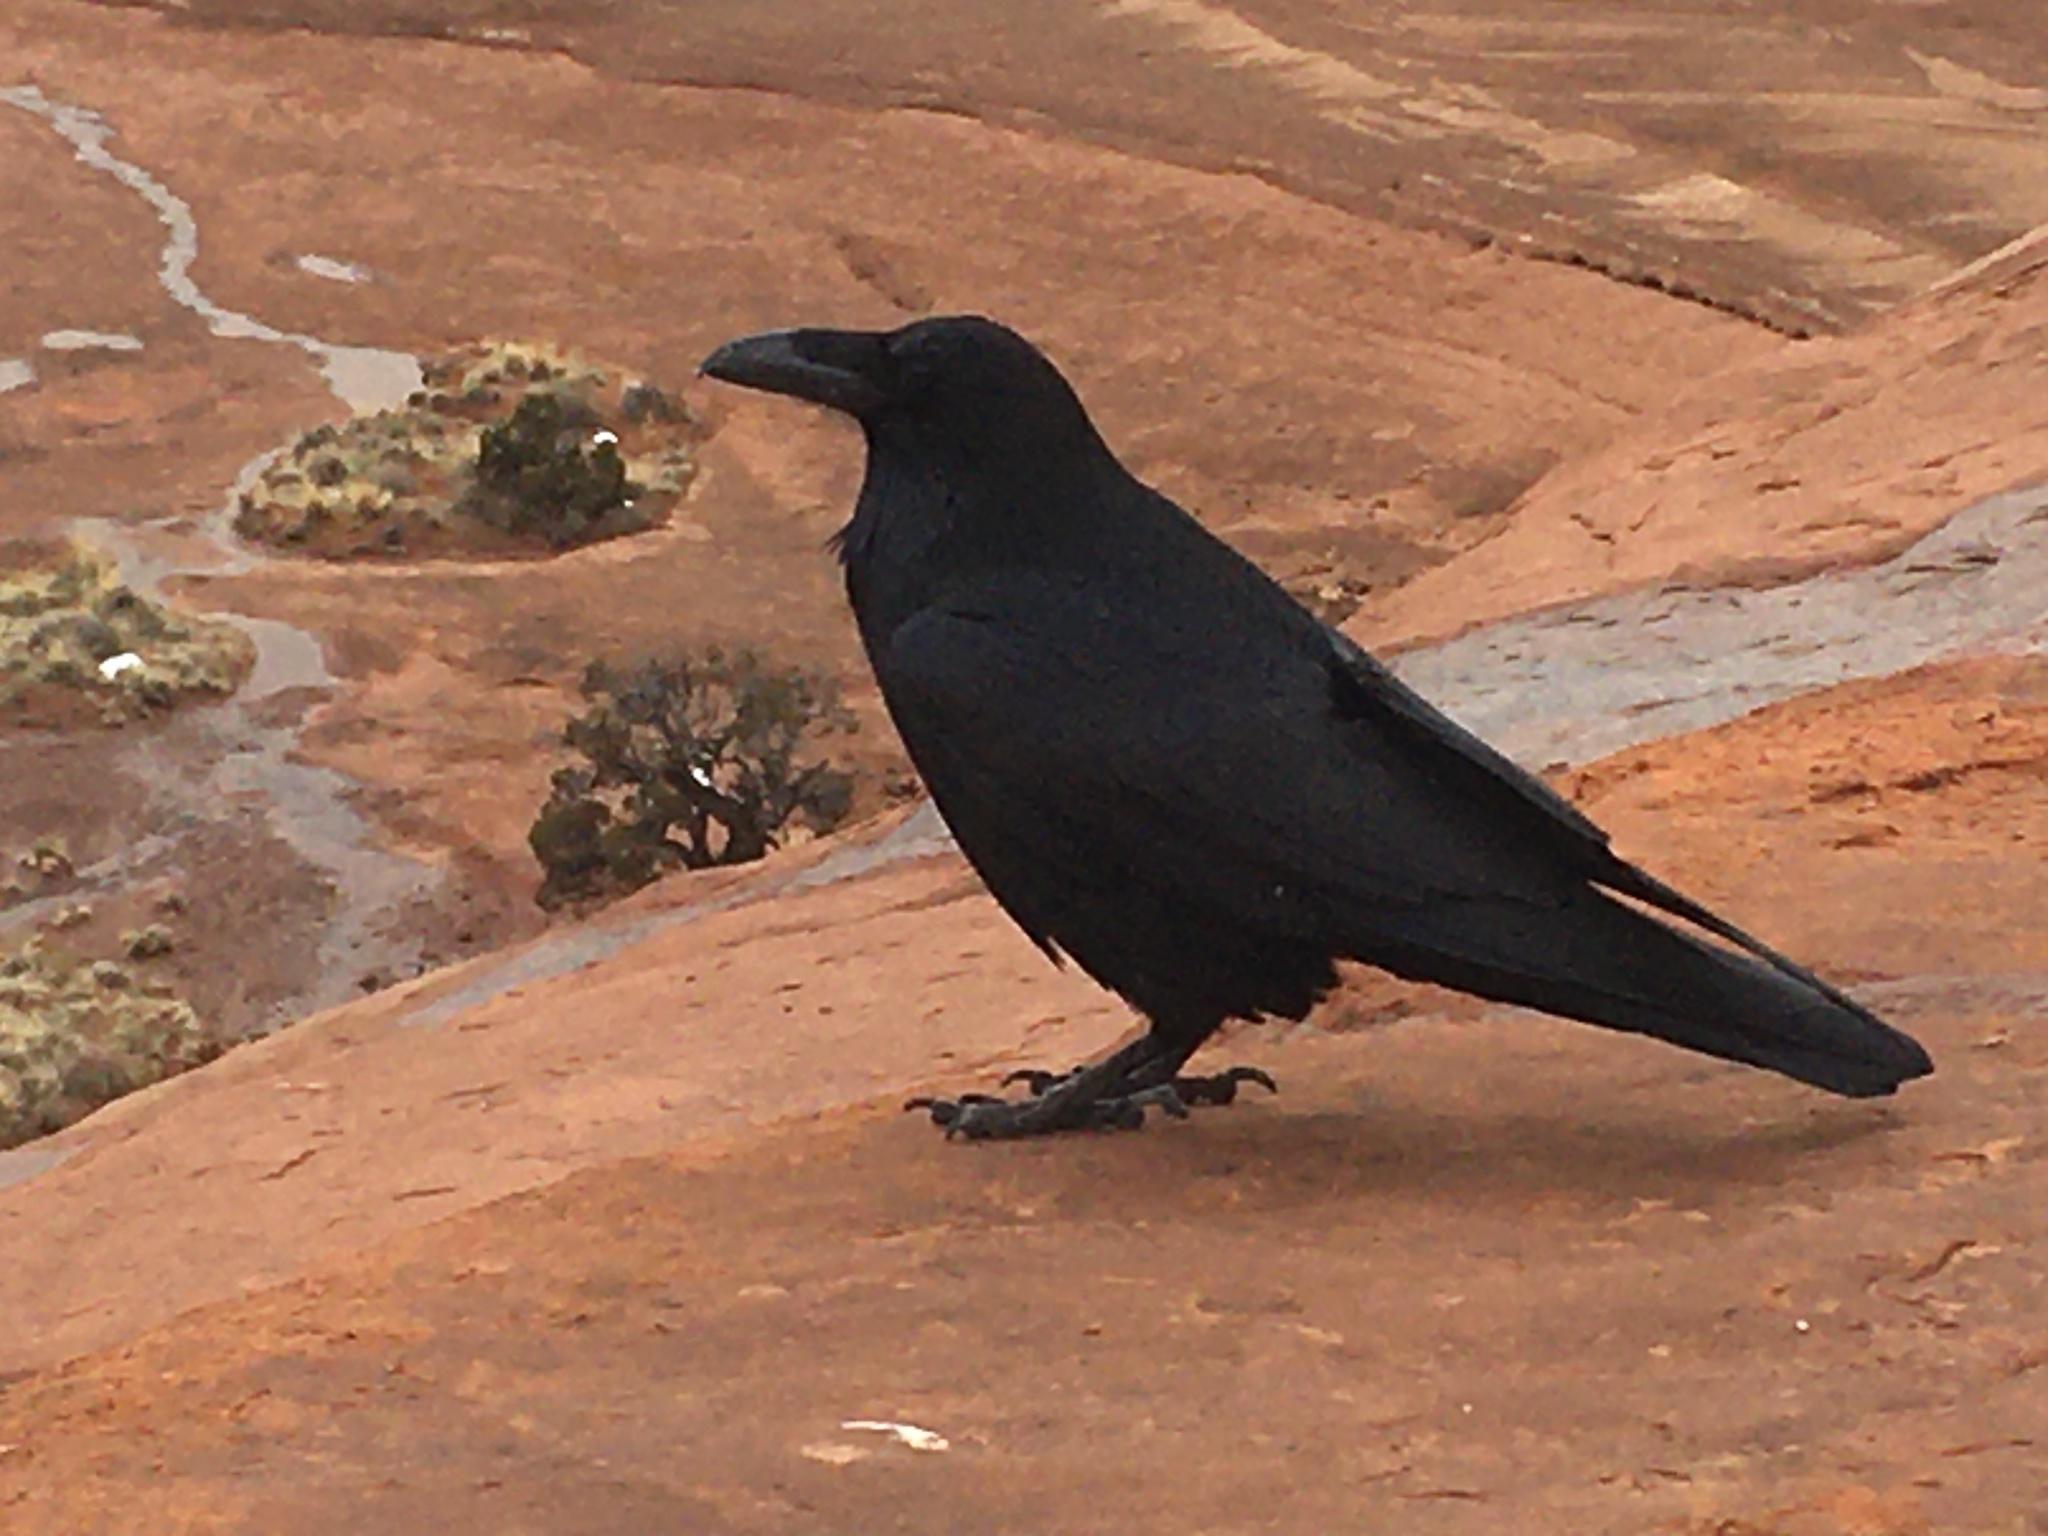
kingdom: Animalia
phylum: Chordata
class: Aves
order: Passeriformes
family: Corvidae
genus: Corvus
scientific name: Corvus corax
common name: Common raven
